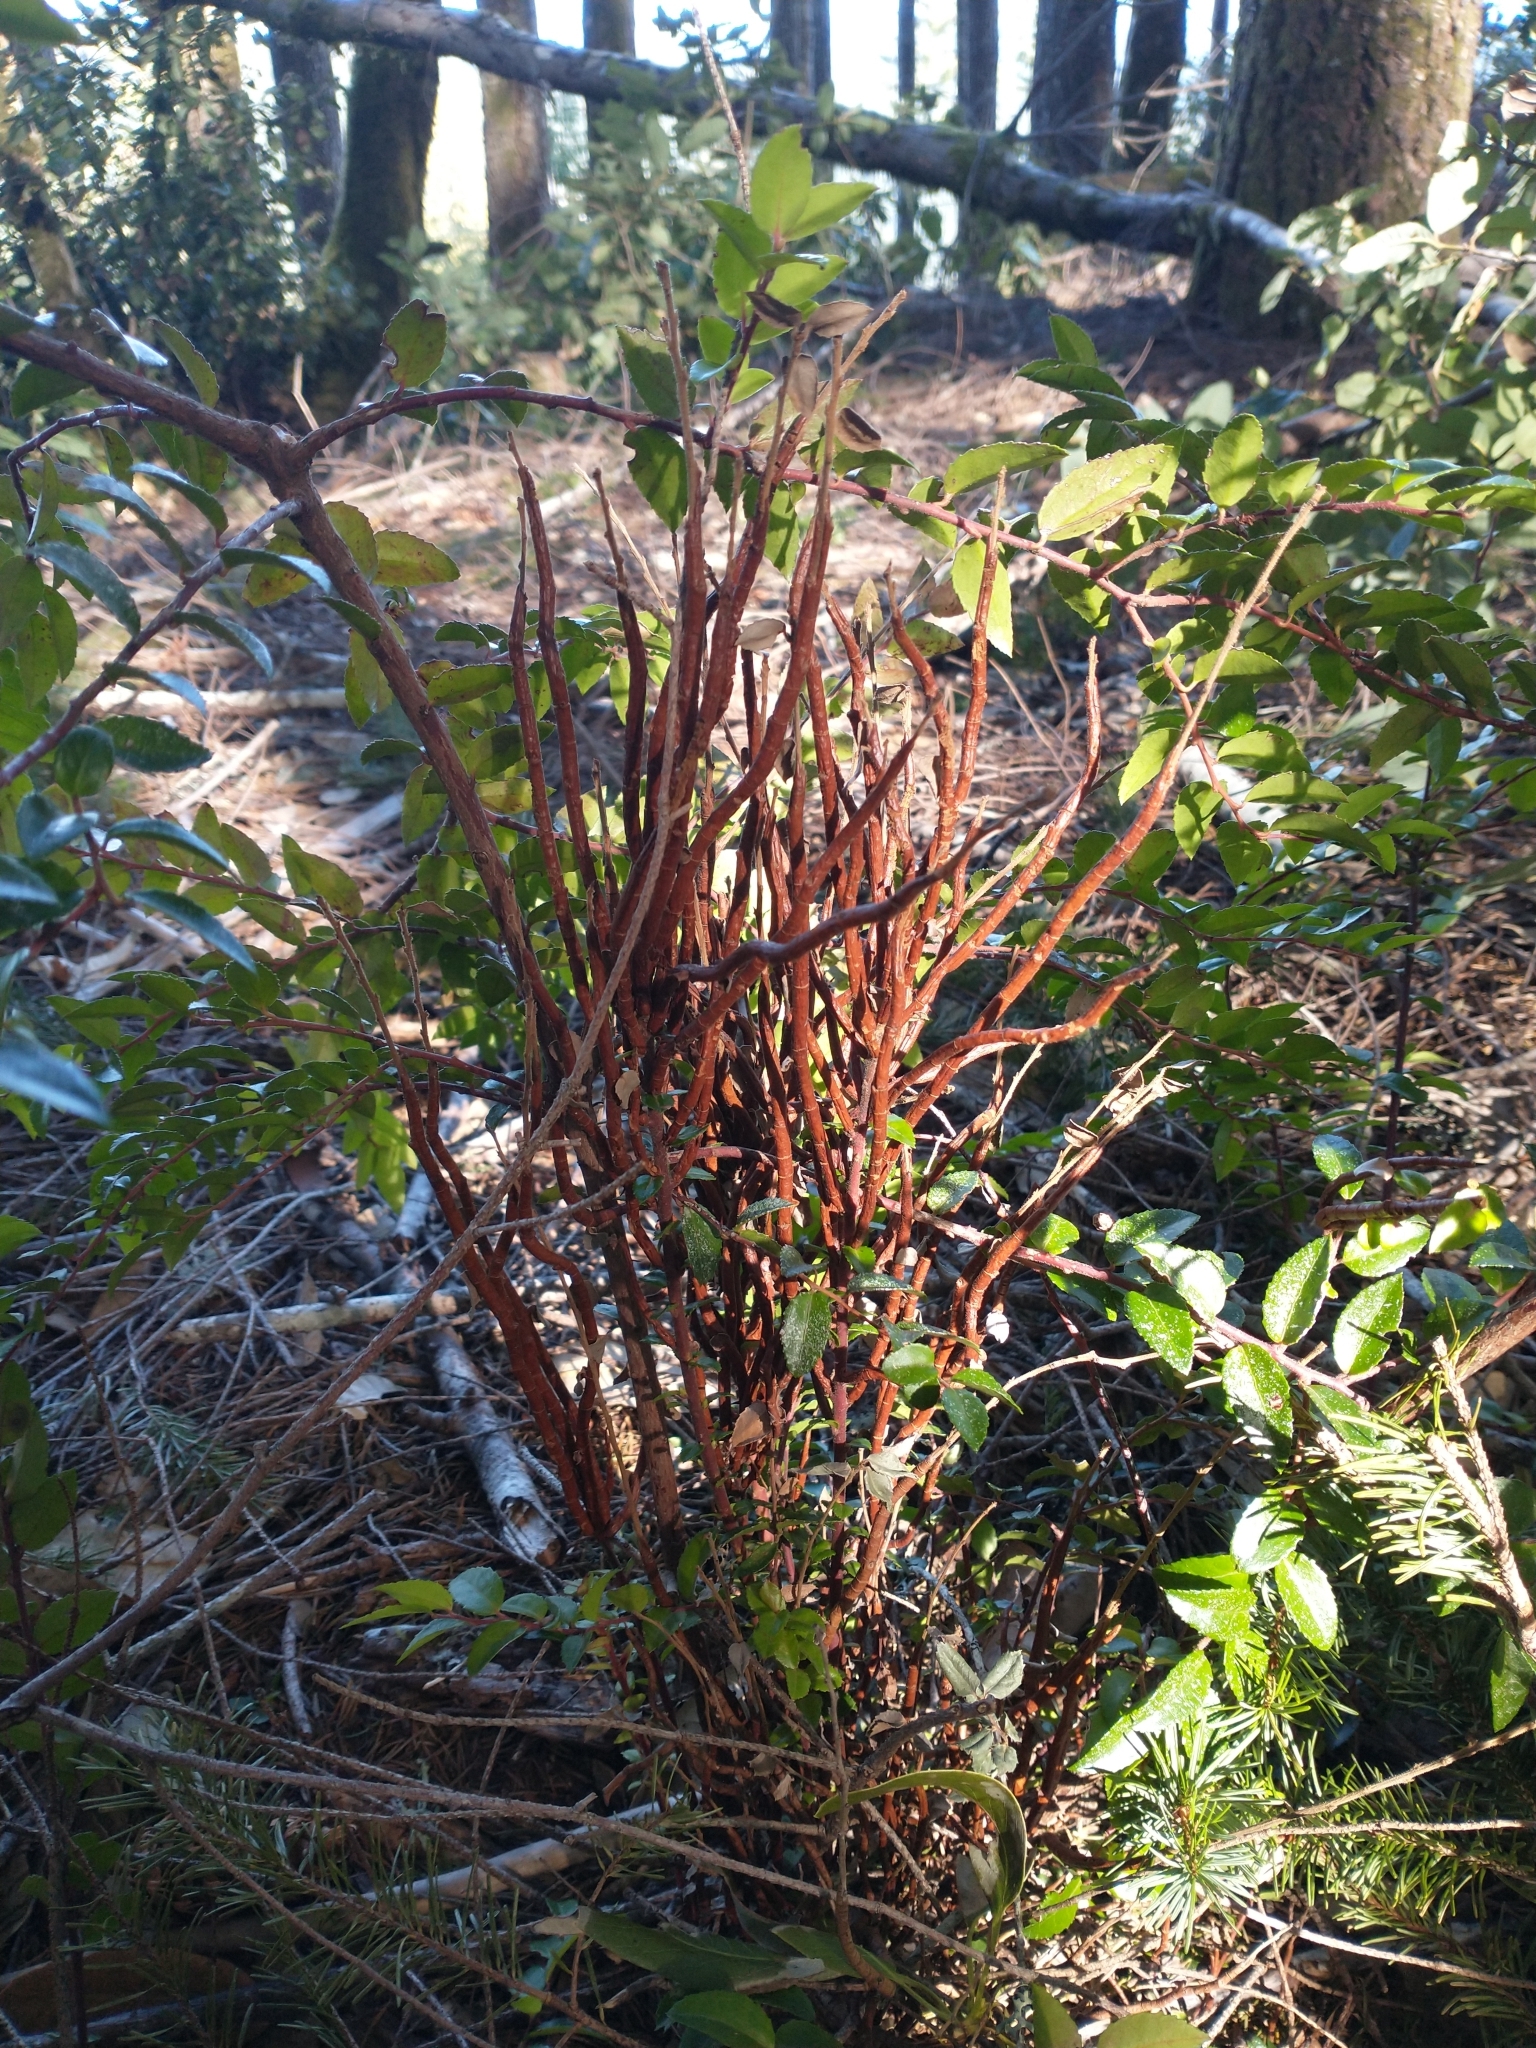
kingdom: Plantae
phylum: Tracheophyta
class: Magnoliopsida
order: Ericales
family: Ericaceae
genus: Vaccinium
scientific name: Vaccinium ovatum
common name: California-huckleberry
